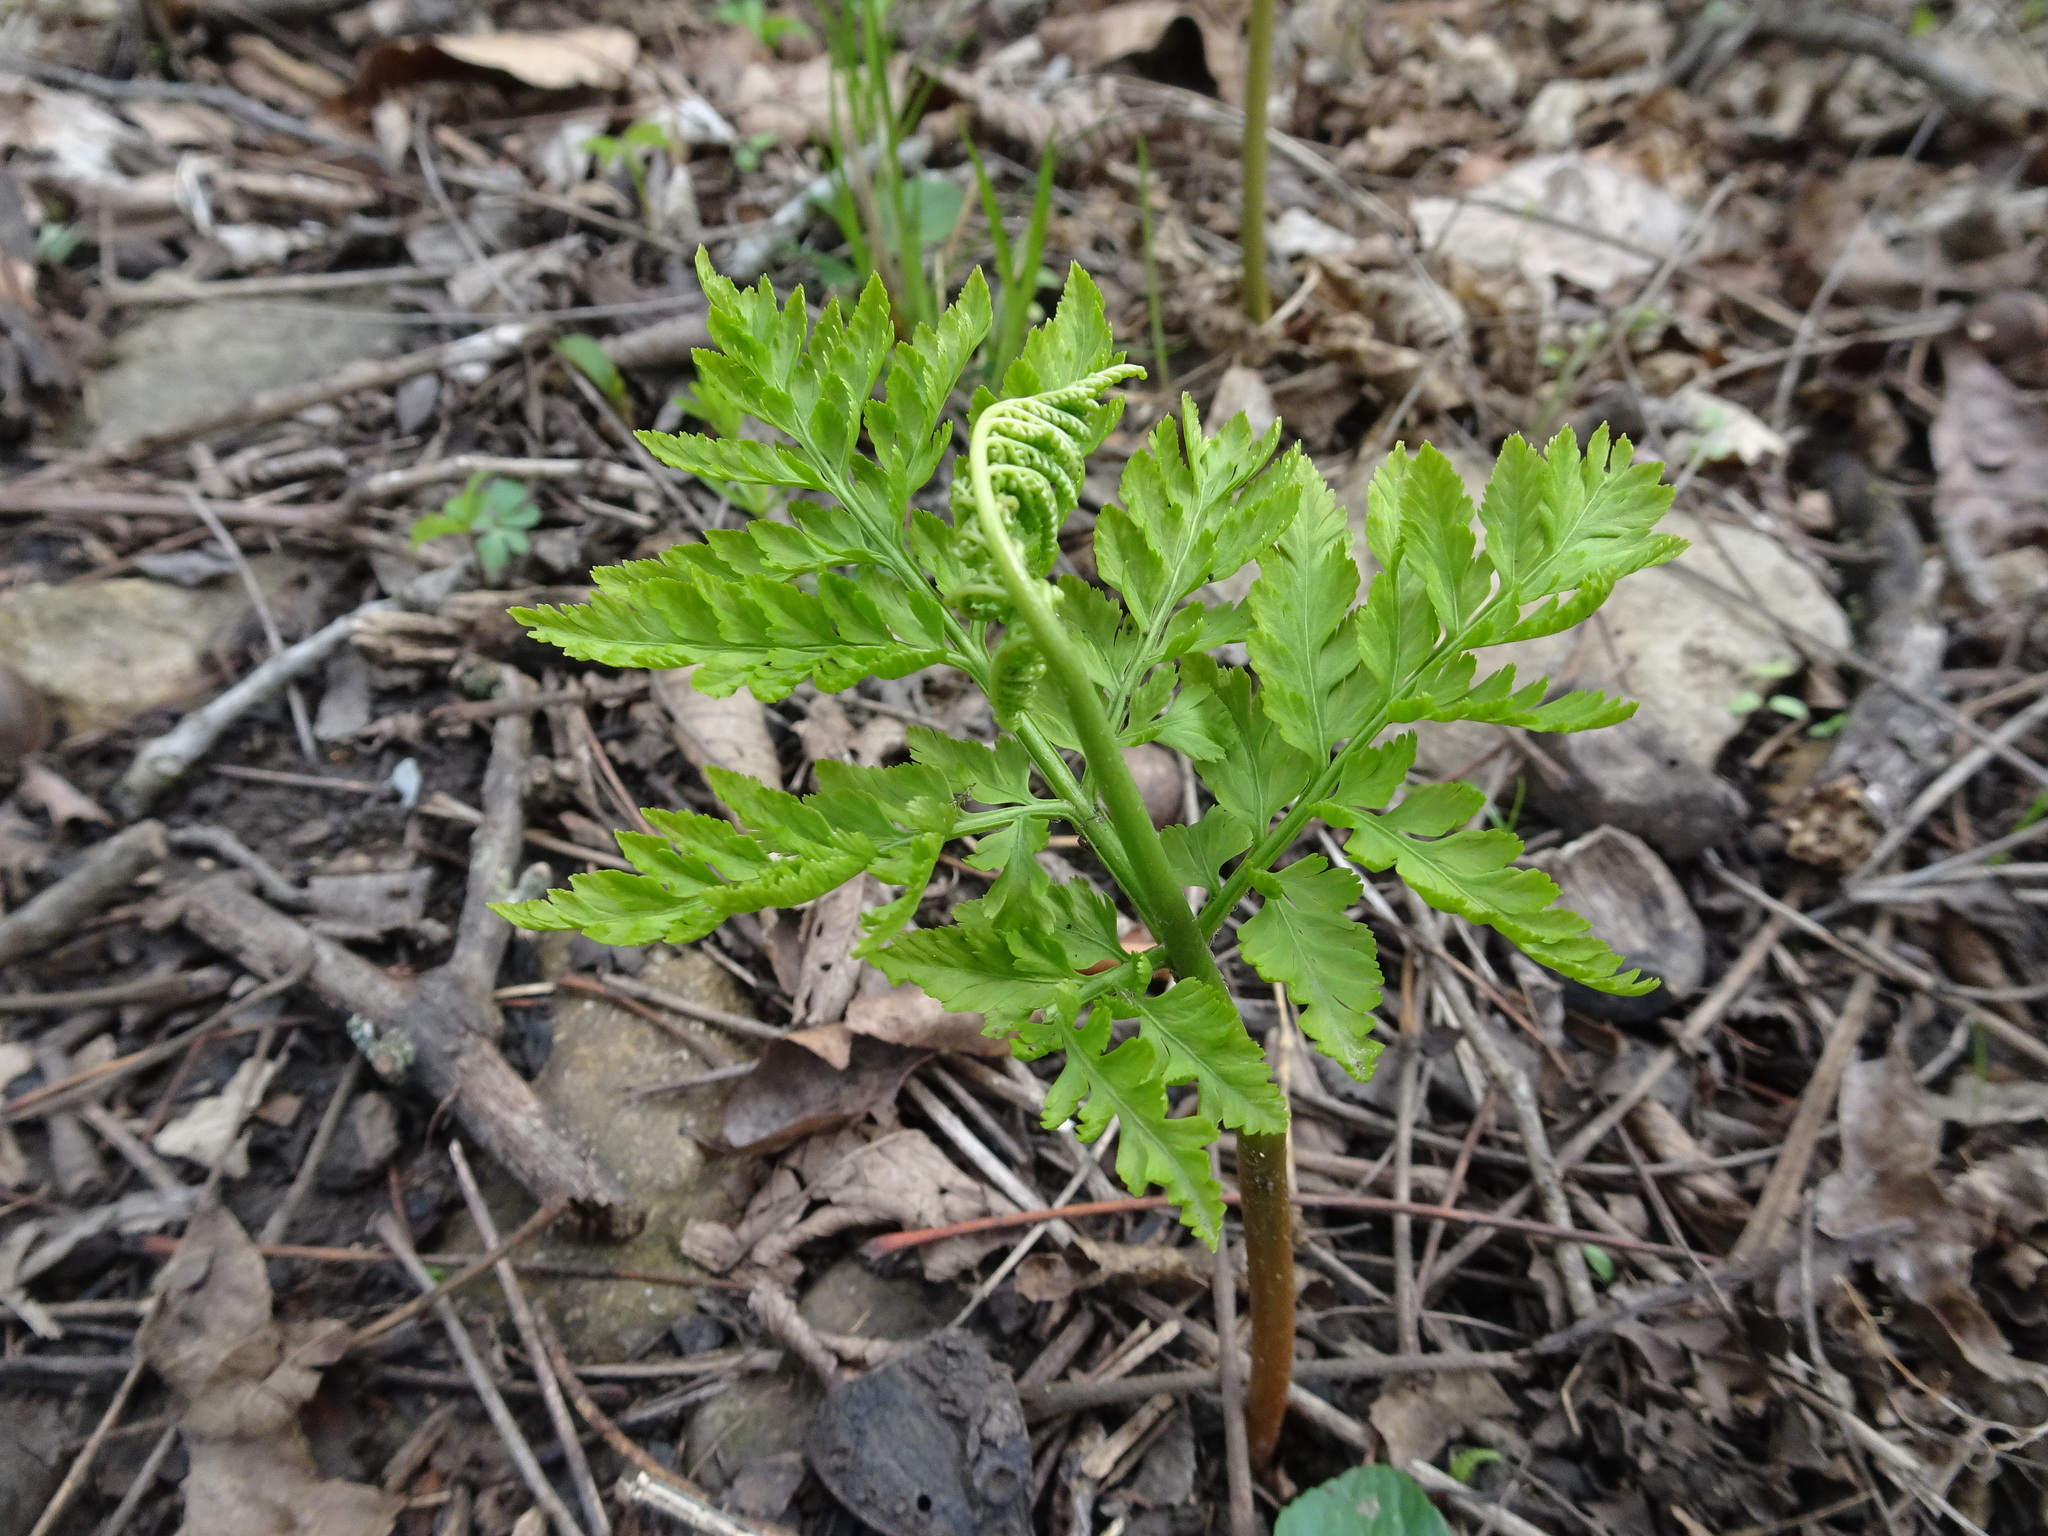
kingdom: Plantae
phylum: Tracheophyta
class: Polypodiopsida
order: Ophioglossales
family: Ophioglossaceae
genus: Botrypus
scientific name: Botrypus virginianus
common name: Common grapefern
